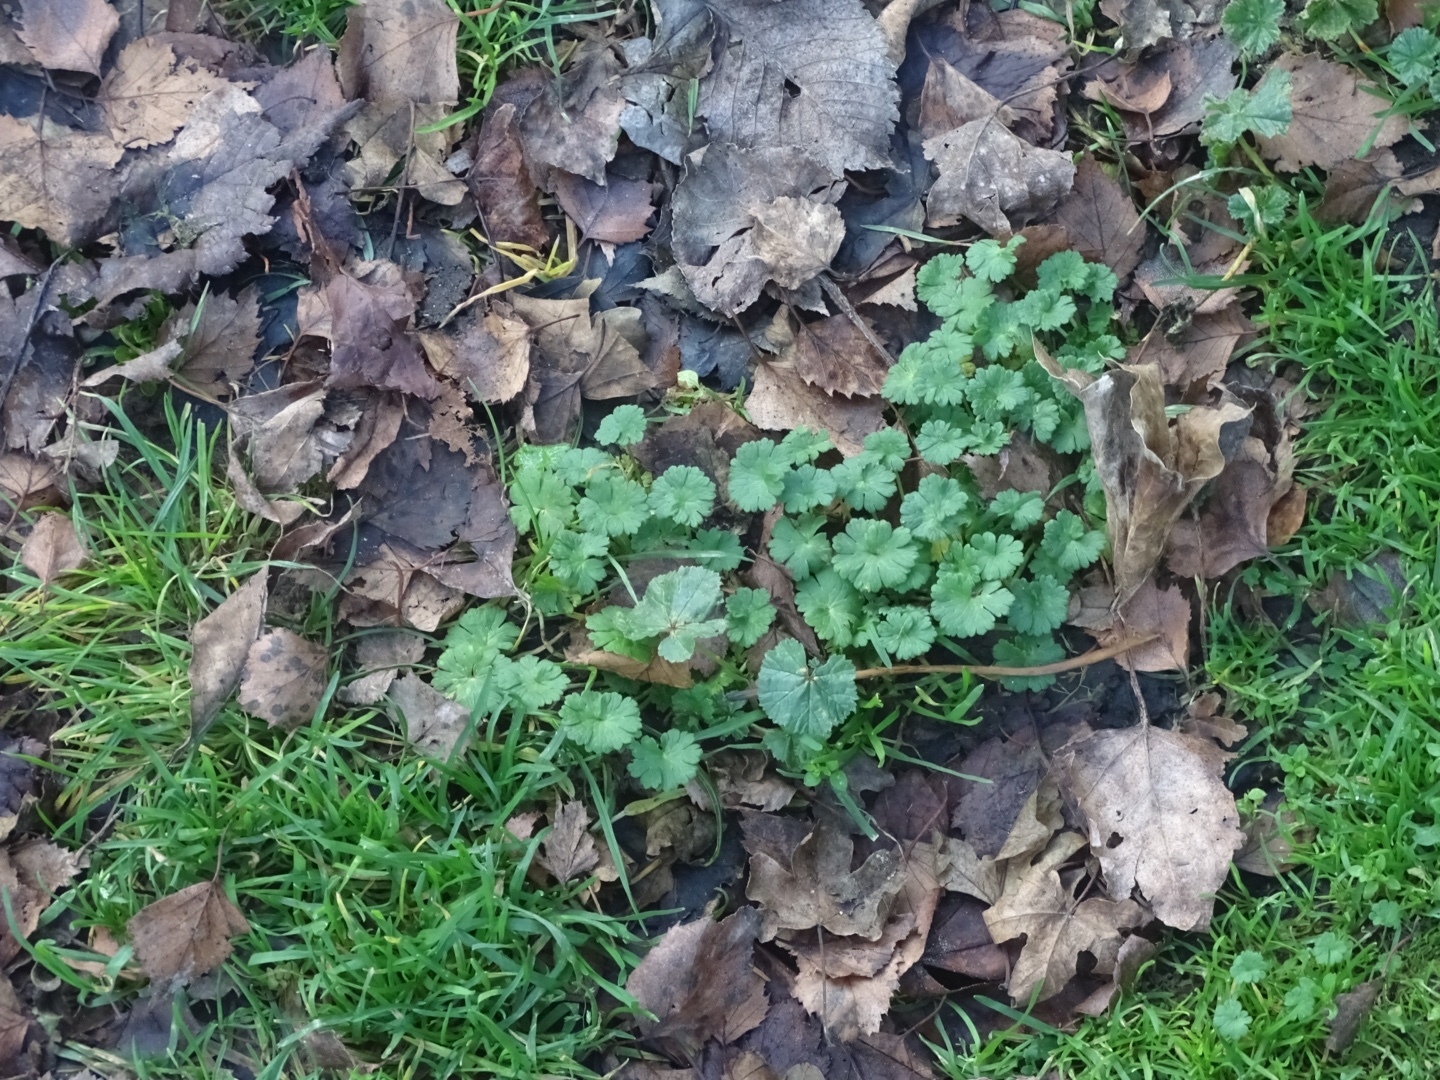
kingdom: Plantae
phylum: Tracheophyta
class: Magnoliopsida
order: Geraniales
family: Geraniaceae
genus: Geranium
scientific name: Geranium molle
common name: Dove's-foot crane's-bill
